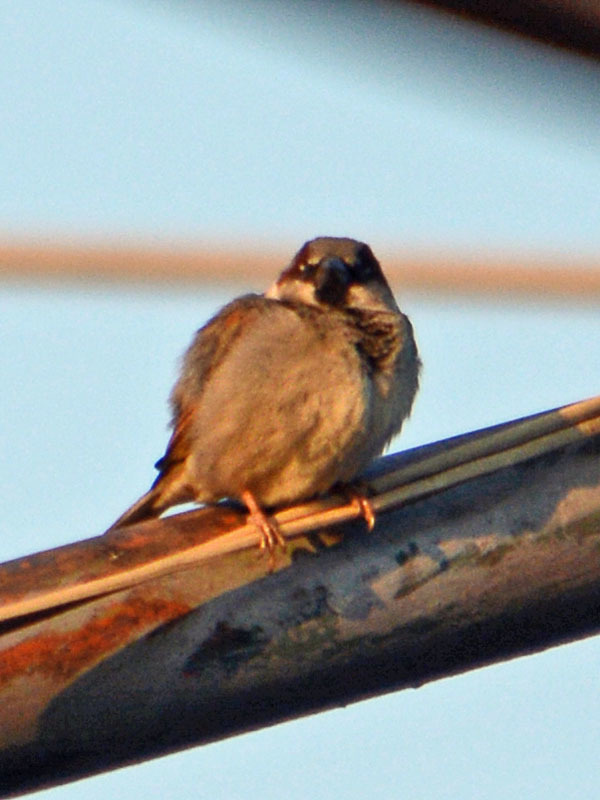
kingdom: Animalia
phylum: Chordata
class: Aves
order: Passeriformes
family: Passeridae
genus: Passer
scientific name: Passer domesticus
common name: House sparrow
